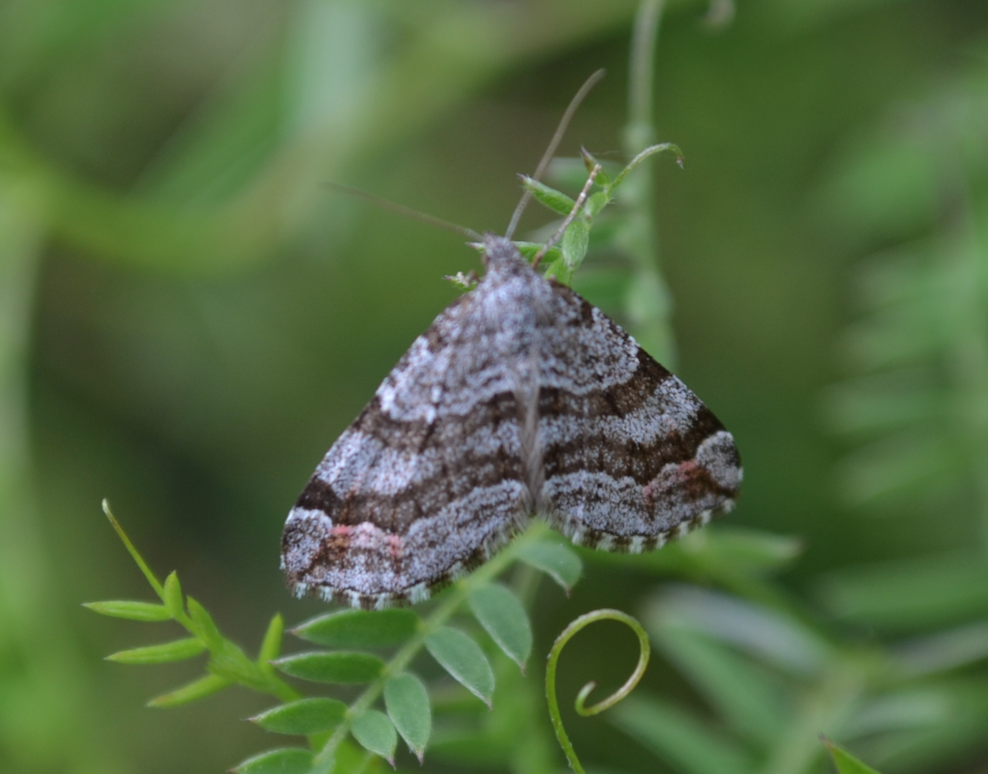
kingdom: Animalia
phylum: Arthropoda
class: Insecta
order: Lepidoptera
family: Geometridae
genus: Carsia
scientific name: Carsia sororiata
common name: Manchester treble-bar
